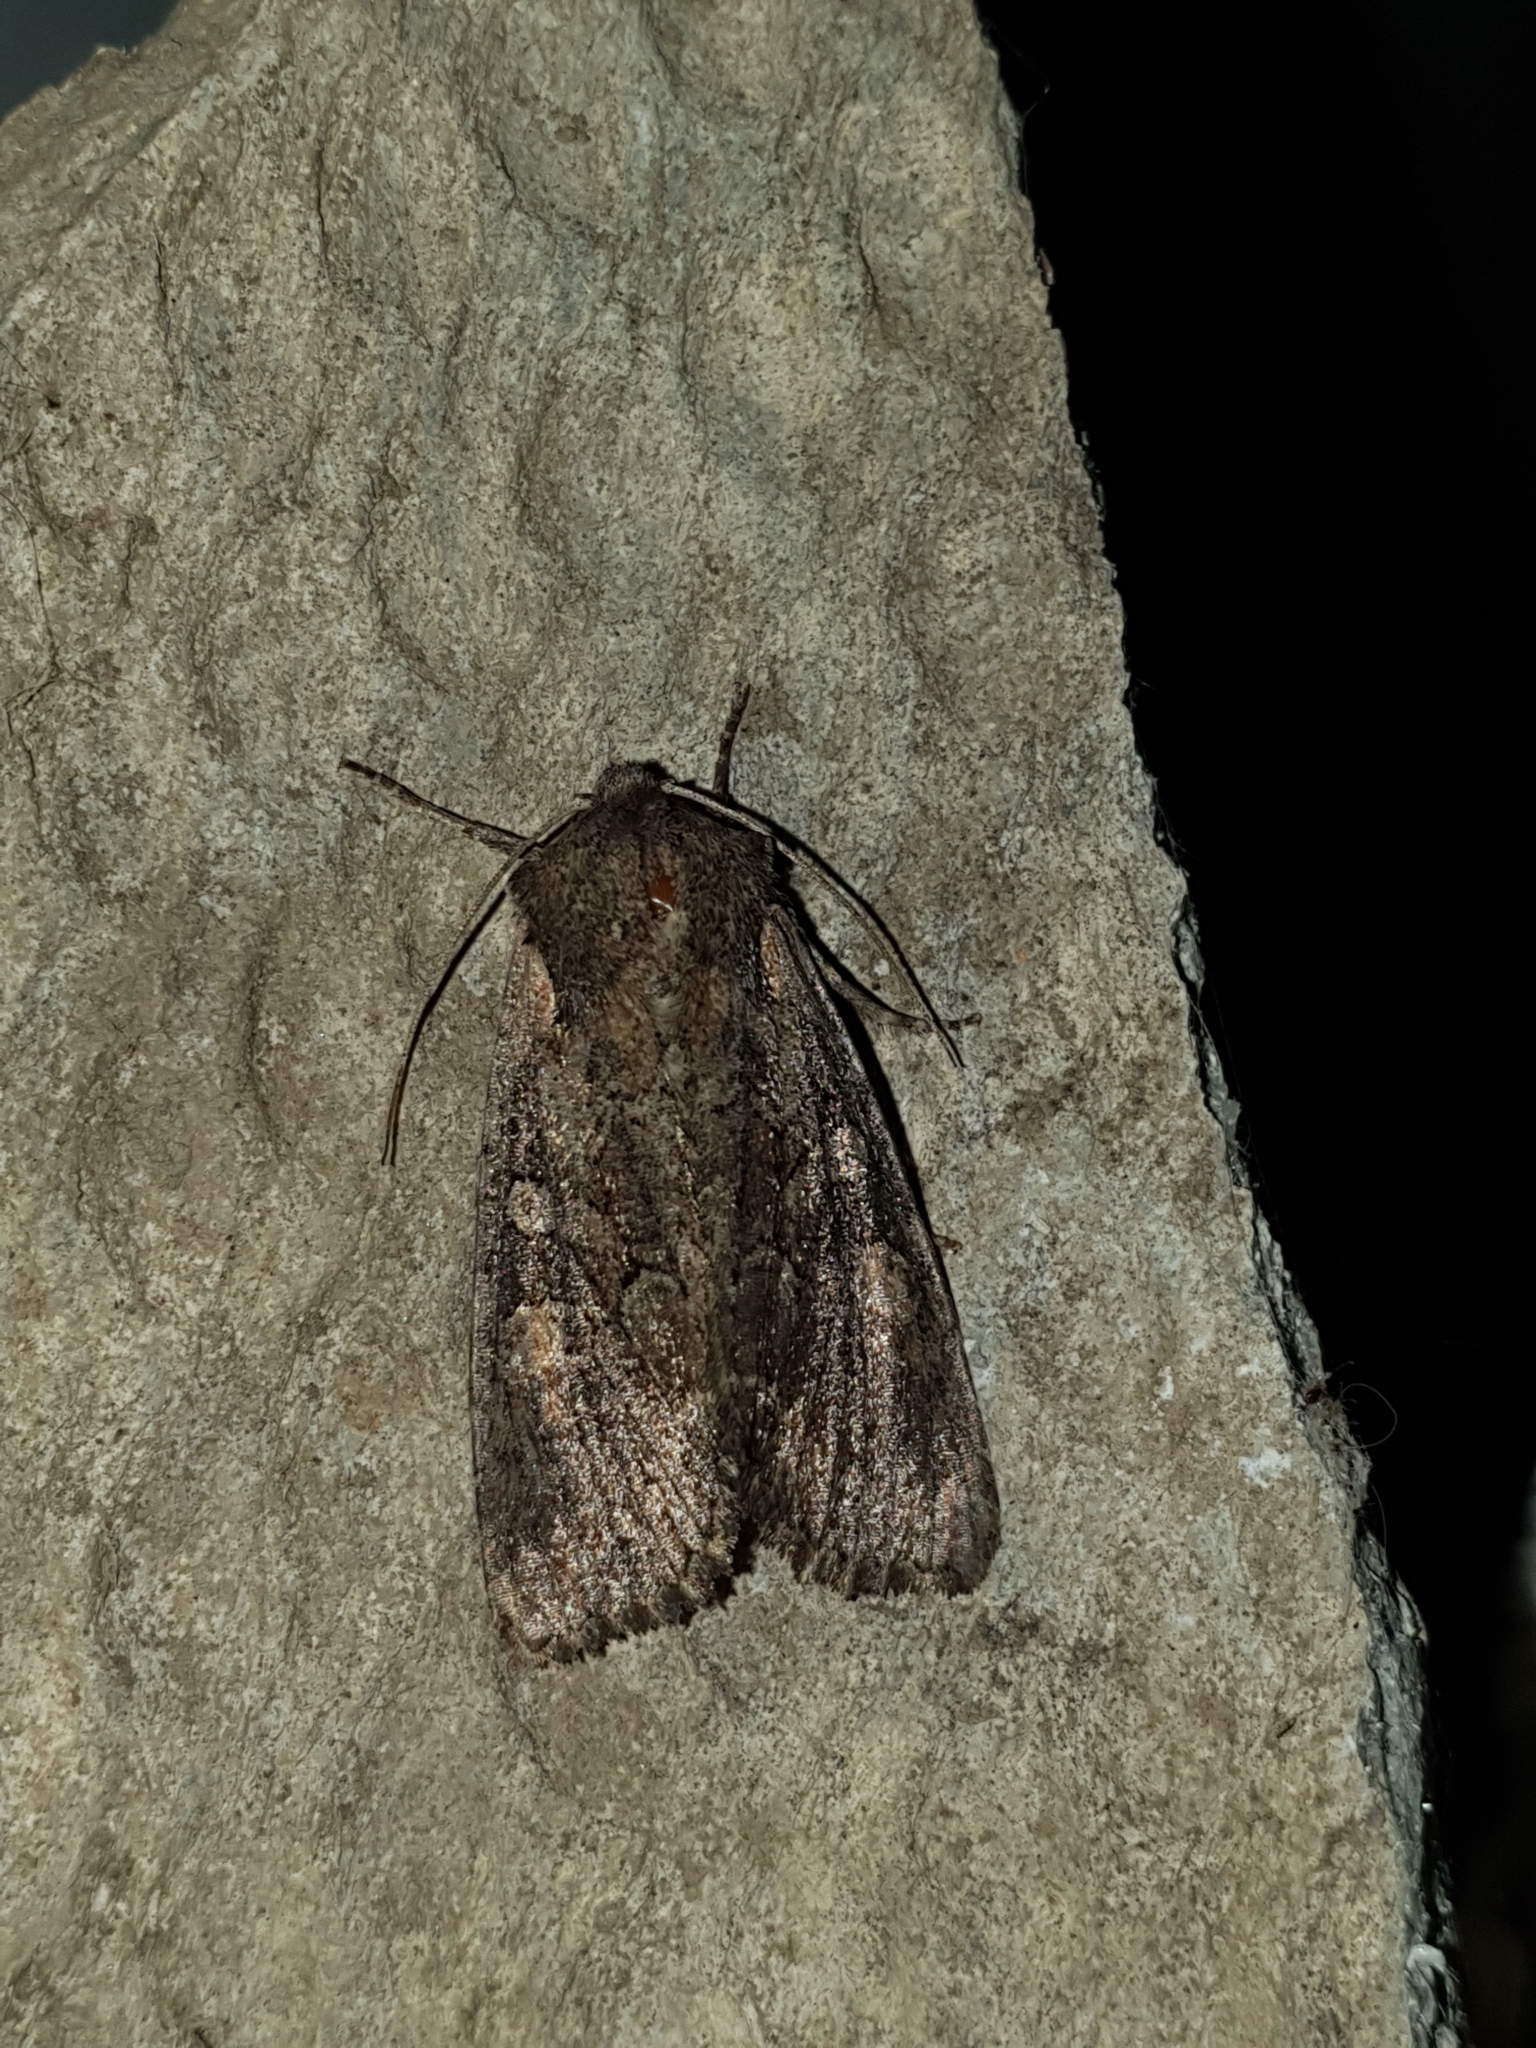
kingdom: Animalia
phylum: Arthropoda
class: Insecta
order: Lepidoptera
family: Noctuidae
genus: Lacanobia
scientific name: Lacanobia suasa
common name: Dog's tooth
